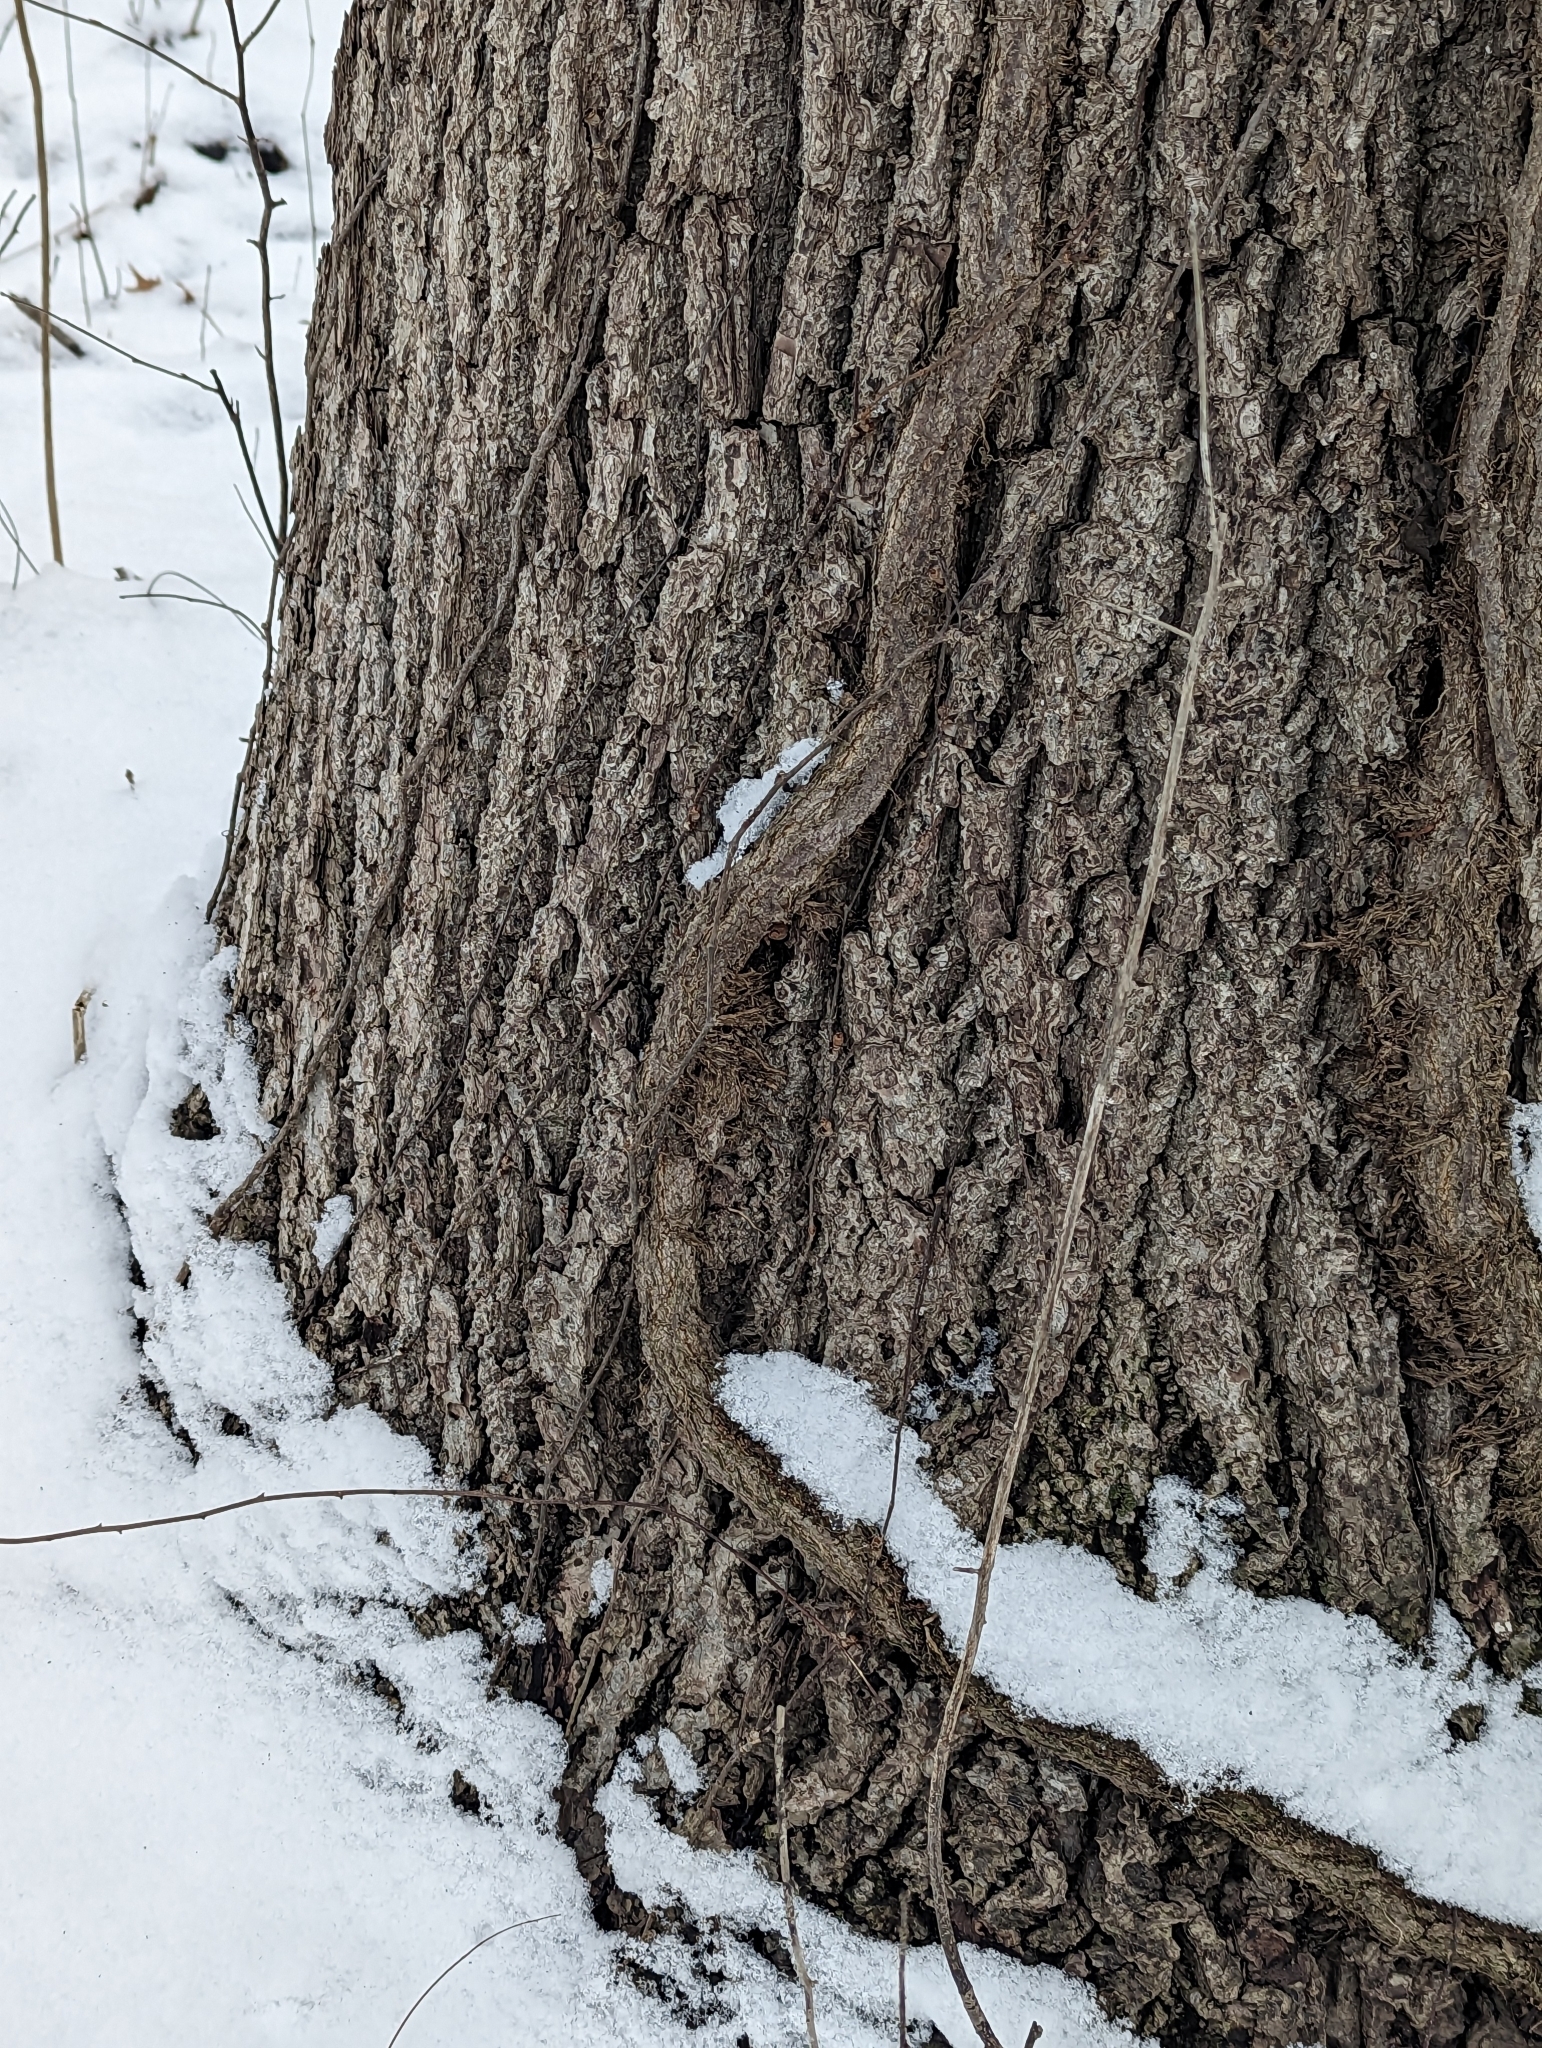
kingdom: Plantae
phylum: Tracheophyta
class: Magnoliopsida
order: Sapindales
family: Anacardiaceae
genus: Toxicodendron
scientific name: Toxicodendron radicans
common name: Poison ivy
